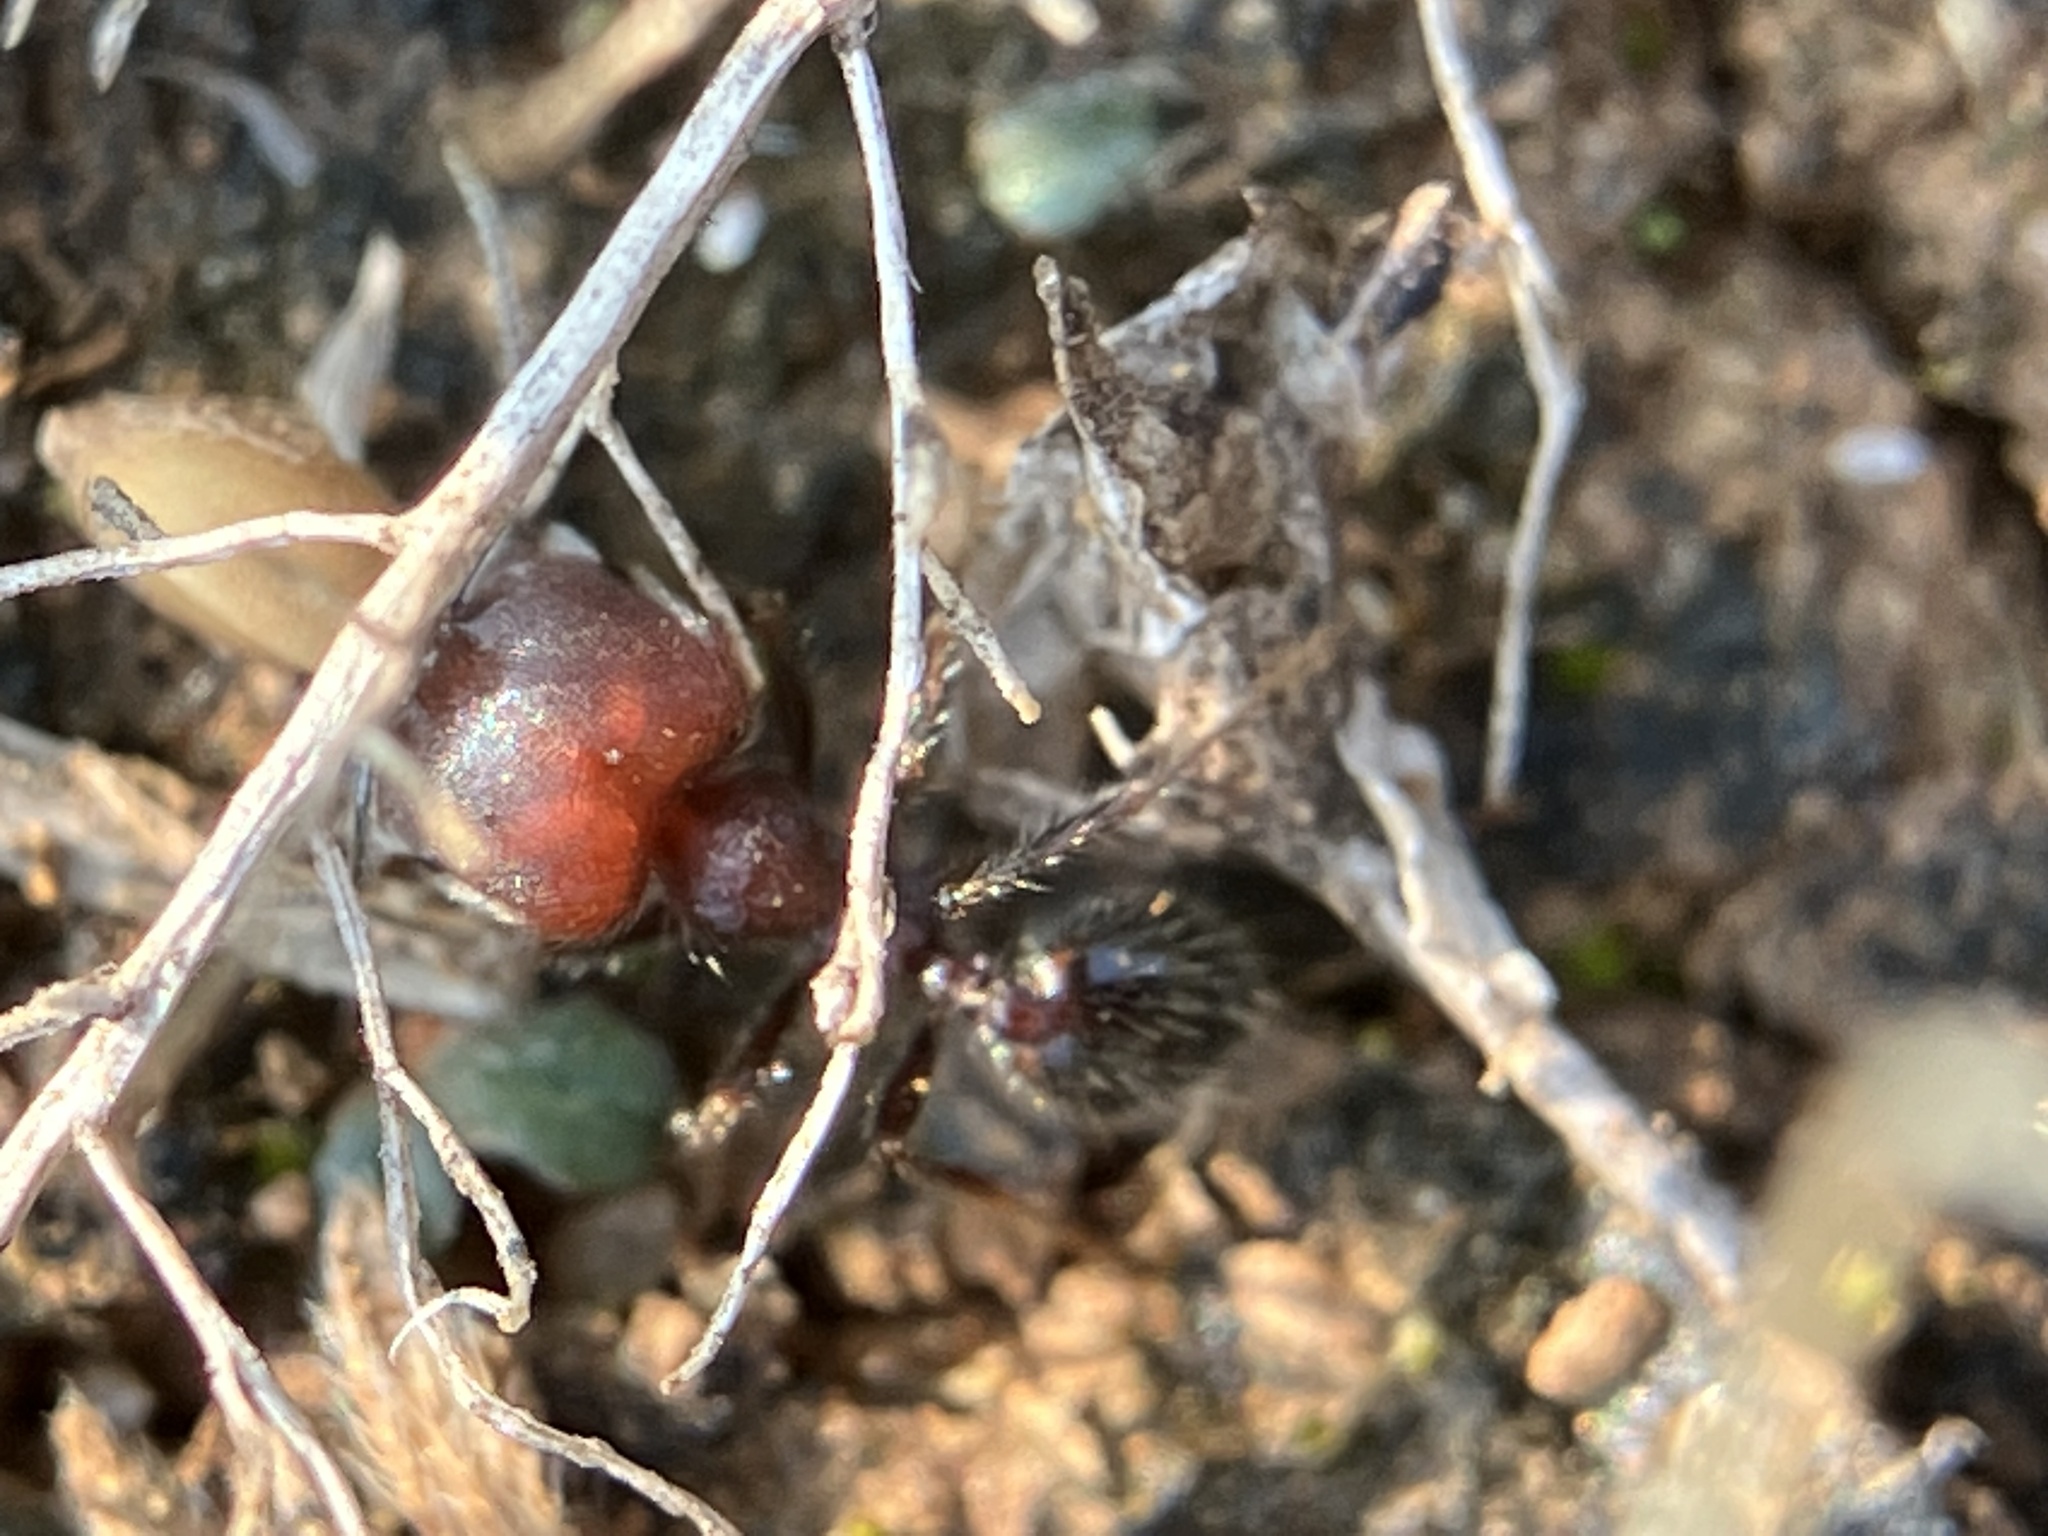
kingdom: Animalia
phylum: Arthropoda
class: Insecta
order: Hymenoptera
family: Formicidae
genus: Trichomyrmex
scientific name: Trichomyrmex
